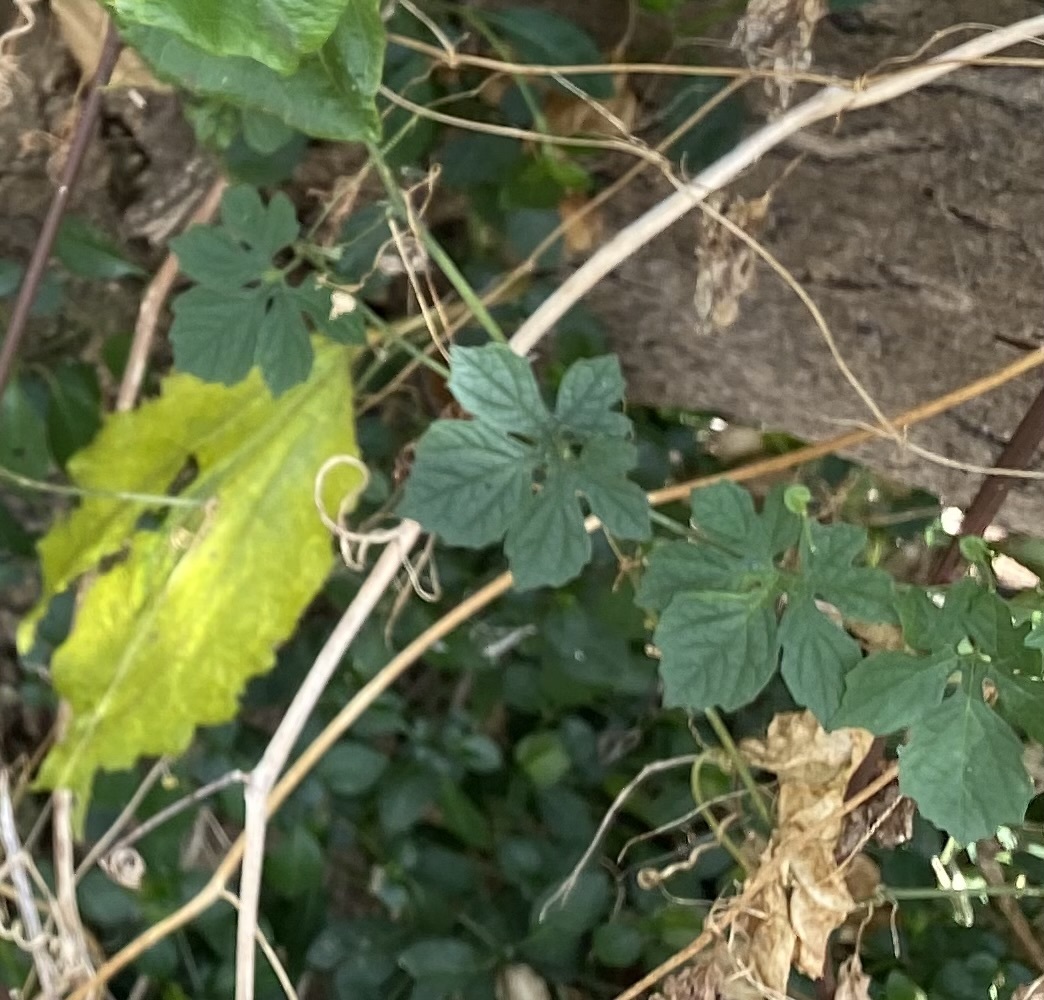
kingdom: Plantae
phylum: Tracheophyta
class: Magnoliopsida
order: Cucurbitales
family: Cucurbitaceae
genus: Momordica
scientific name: Momordica charantia
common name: Balsampear
